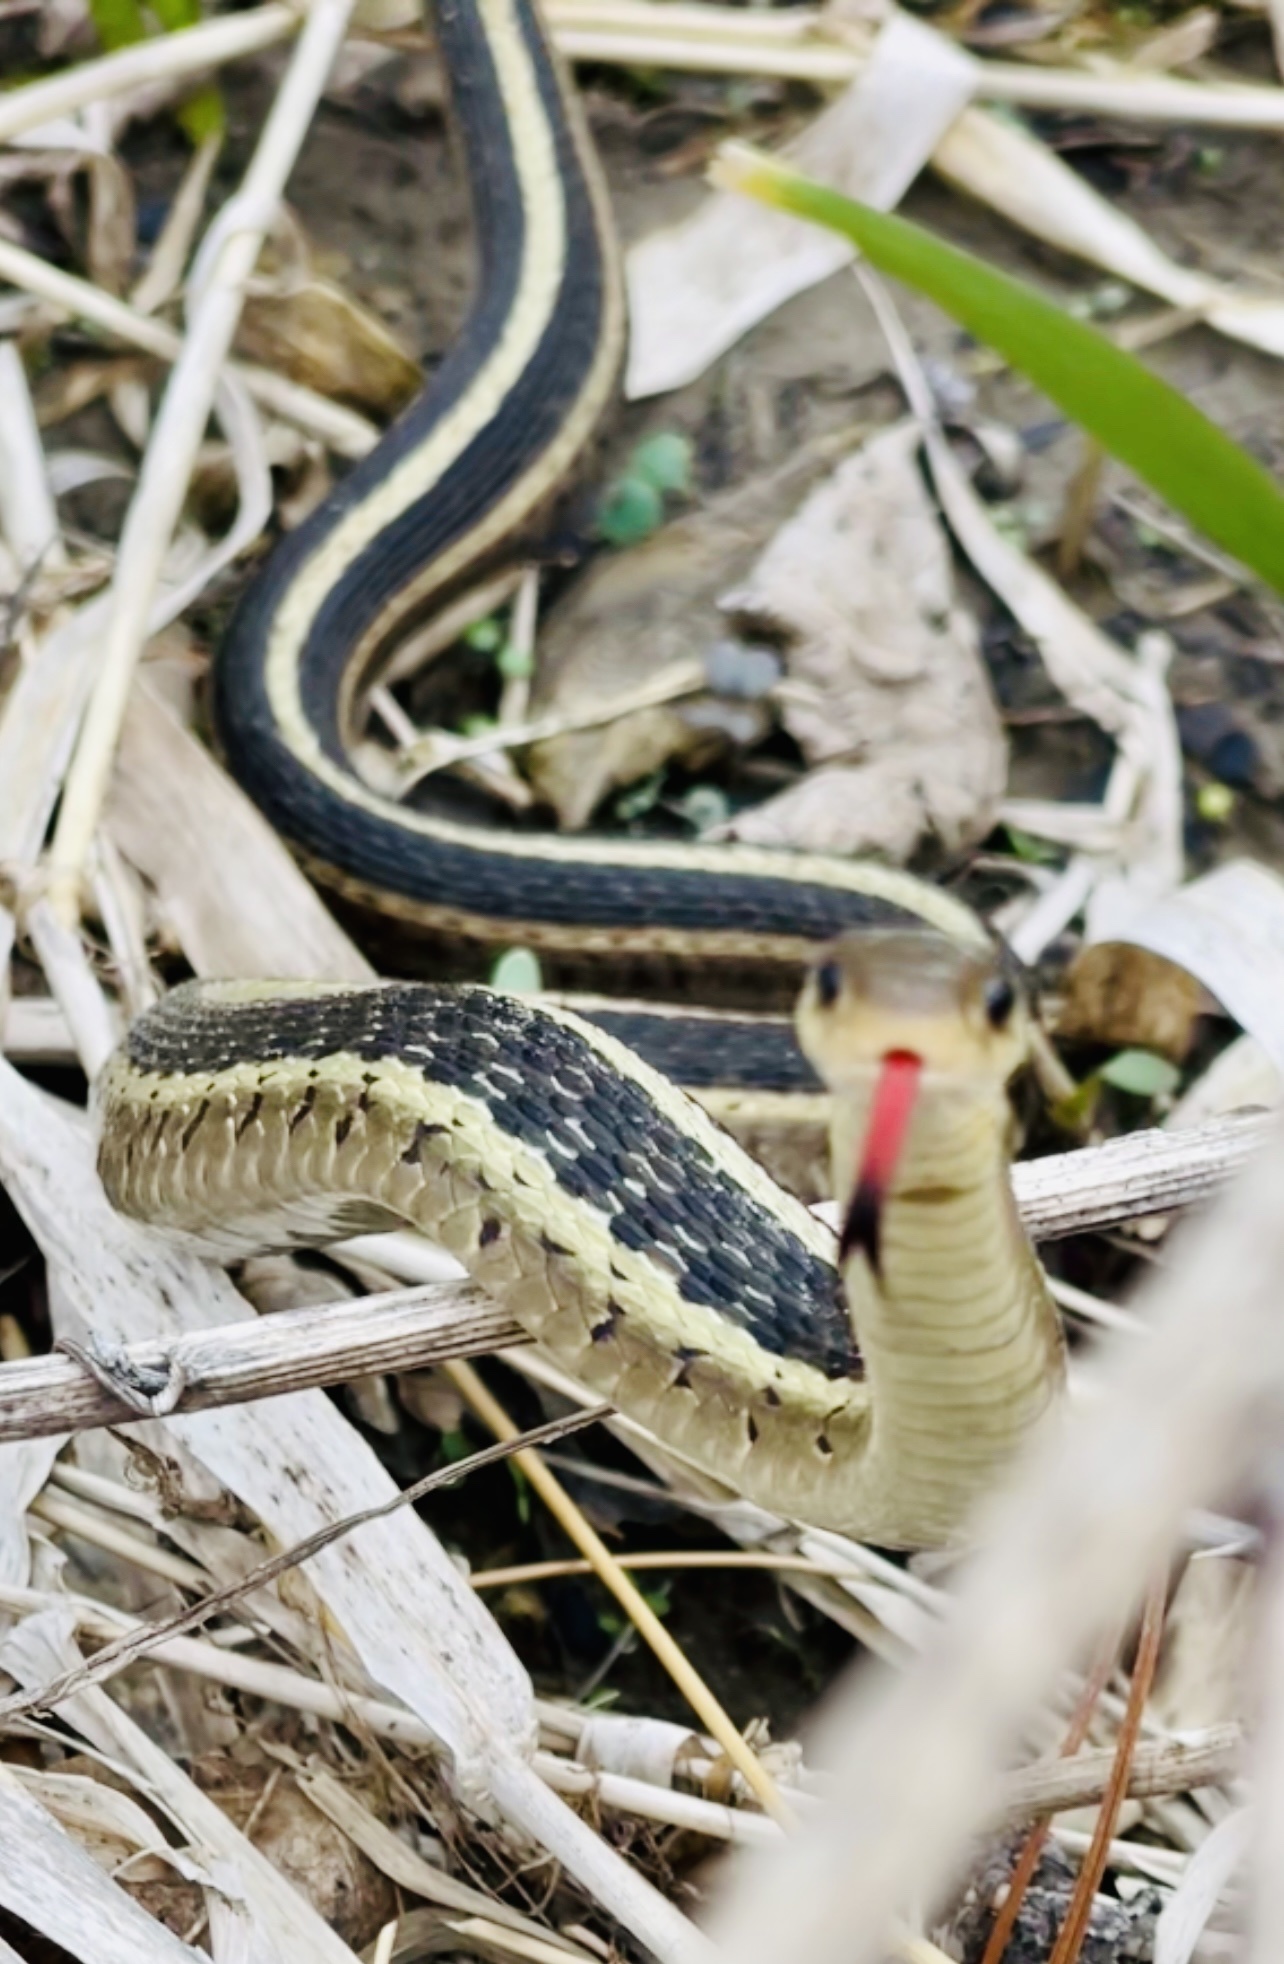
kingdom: Animalia
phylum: Chordata
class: Squamata
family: Colubridae
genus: Thamnophis
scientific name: Thamnophis sirtalis
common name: Common garter snake
